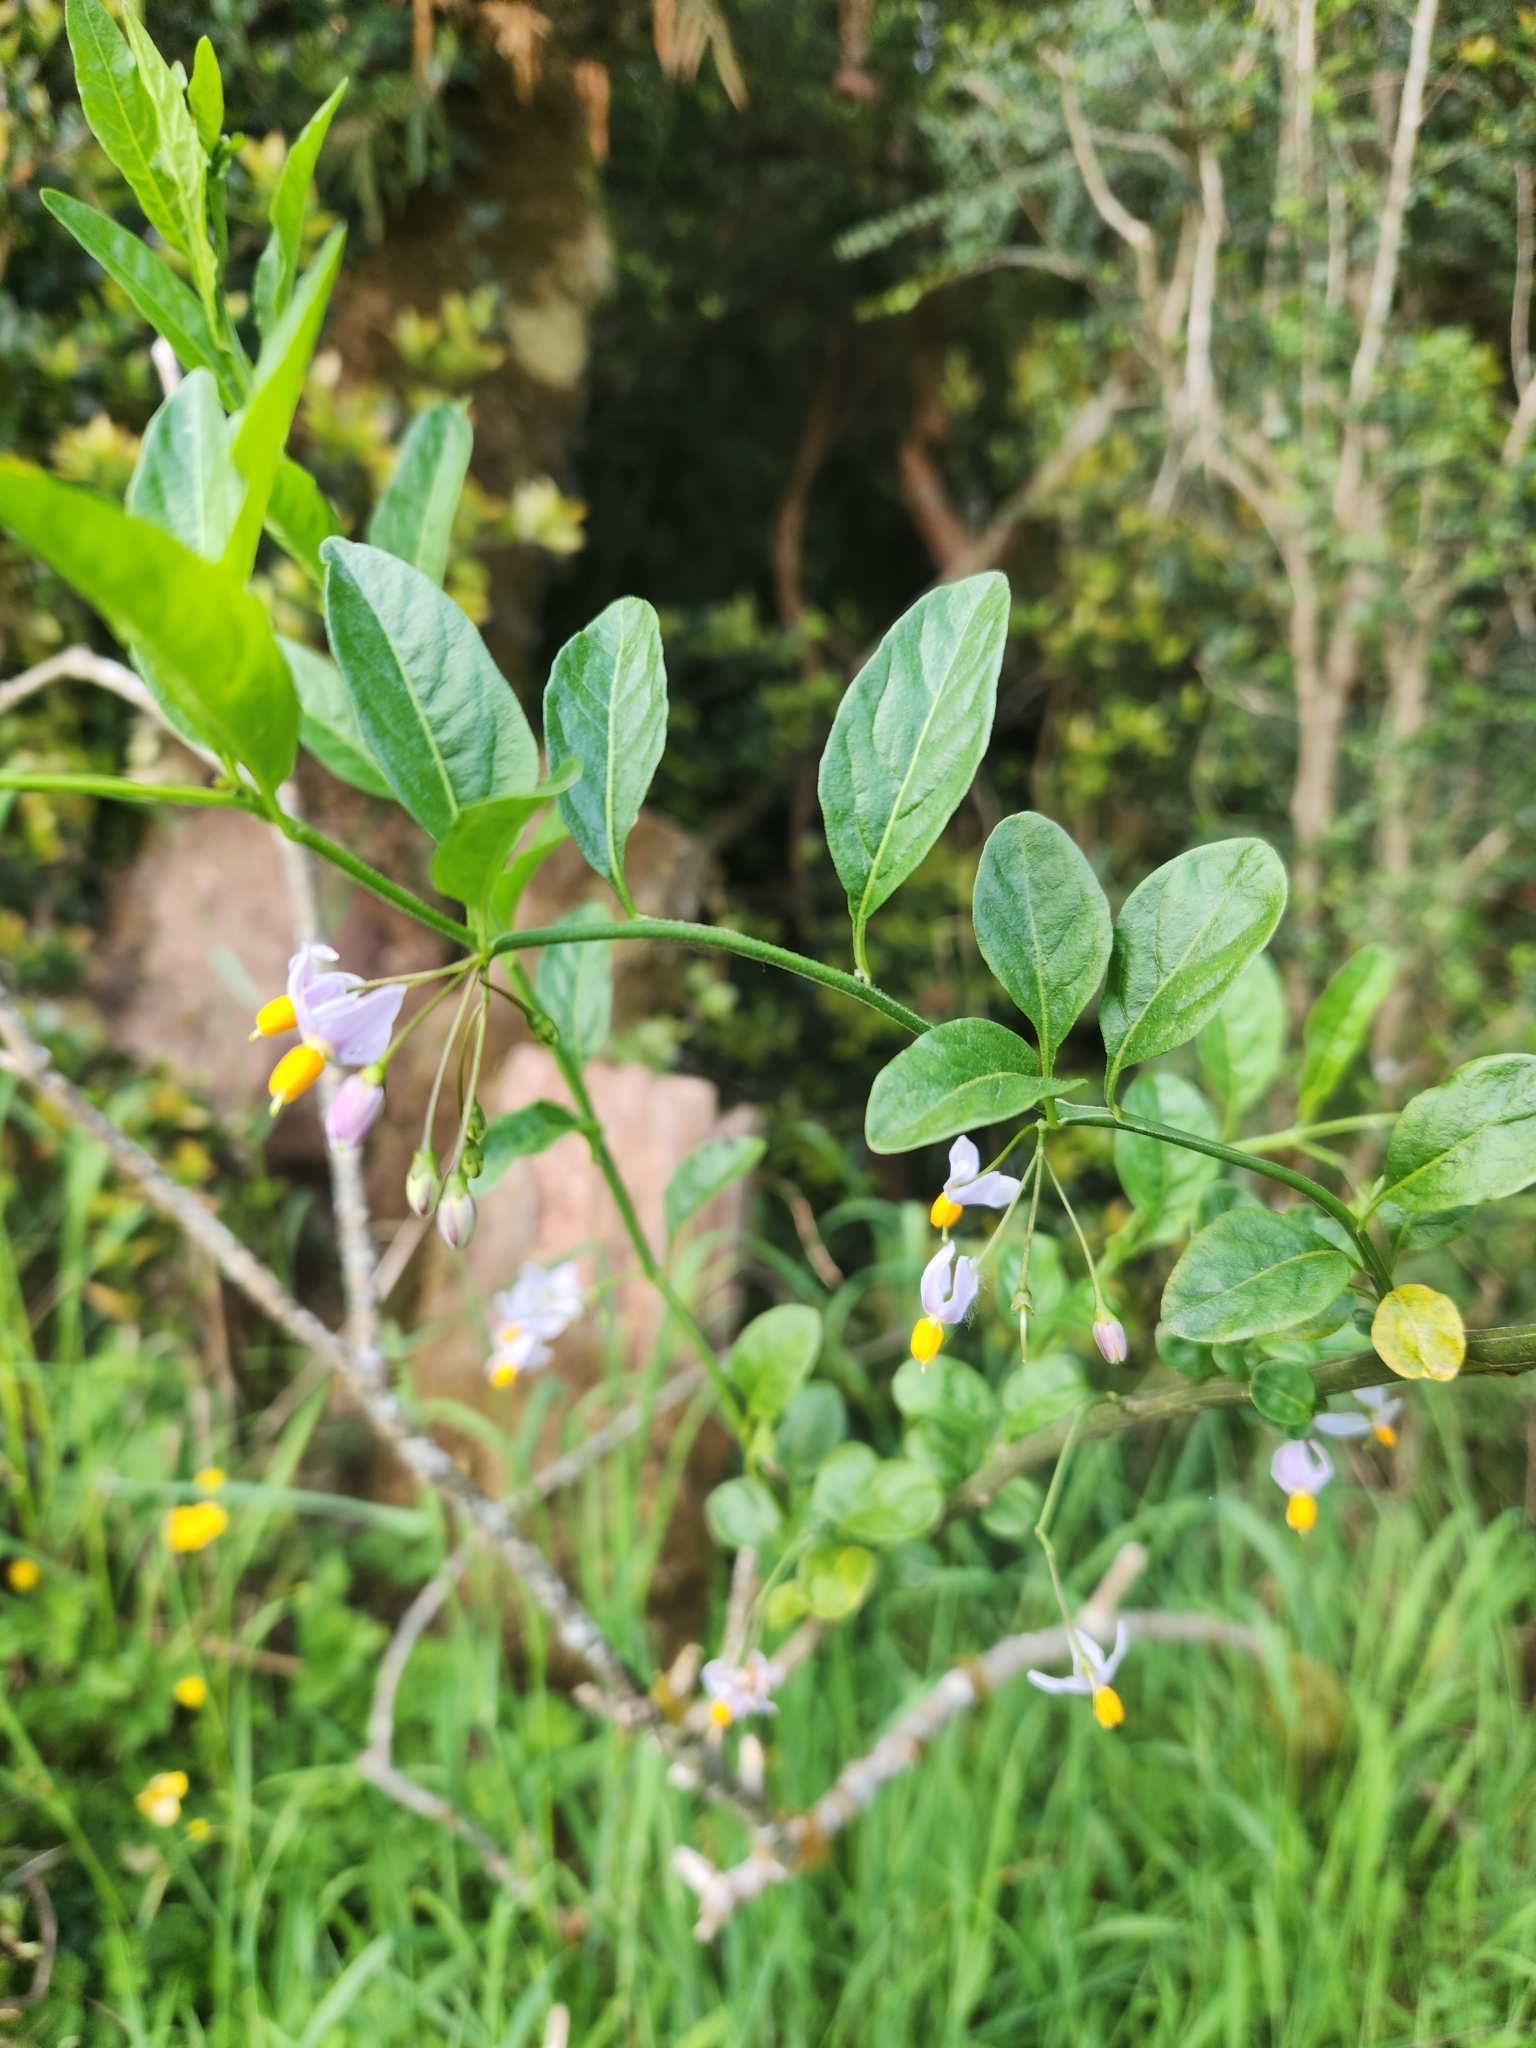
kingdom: Plantae
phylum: Tracheophyta
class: Magnoliopsida
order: Solanales
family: Solanaceae
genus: Solanum
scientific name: Solanum valdiviense
